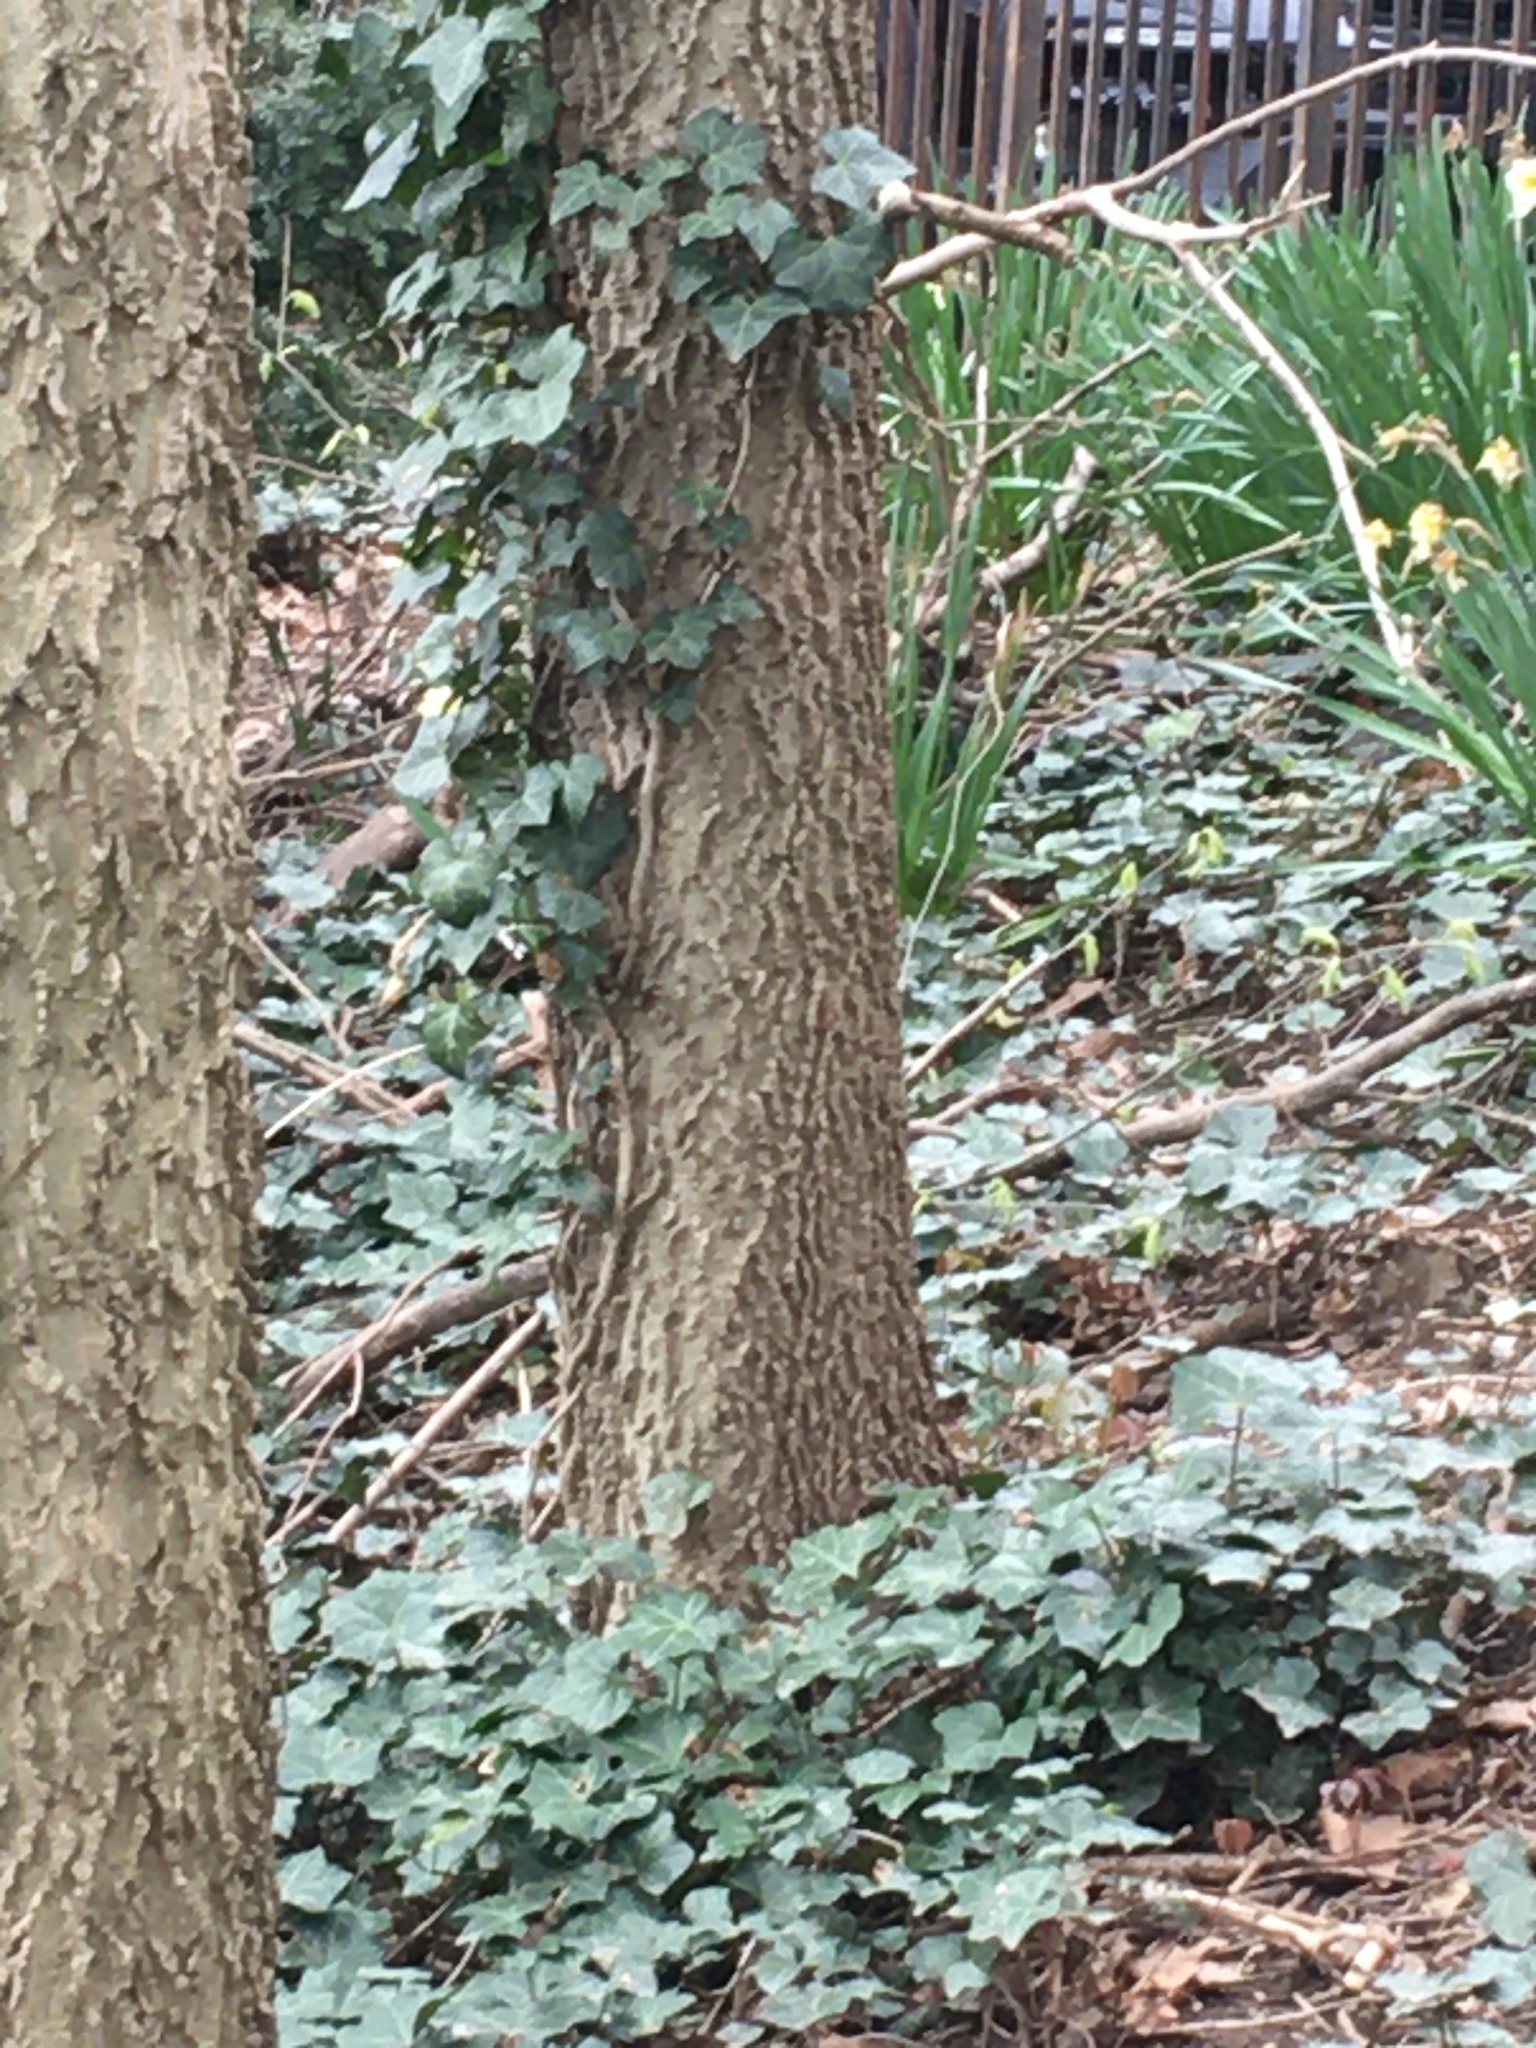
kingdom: Plantae
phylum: Tracheophyta
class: Magnoliopsida
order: Rosales
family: Cannabaceae
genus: Celtis
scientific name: Celtis occidentalis
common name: Common hackberry
